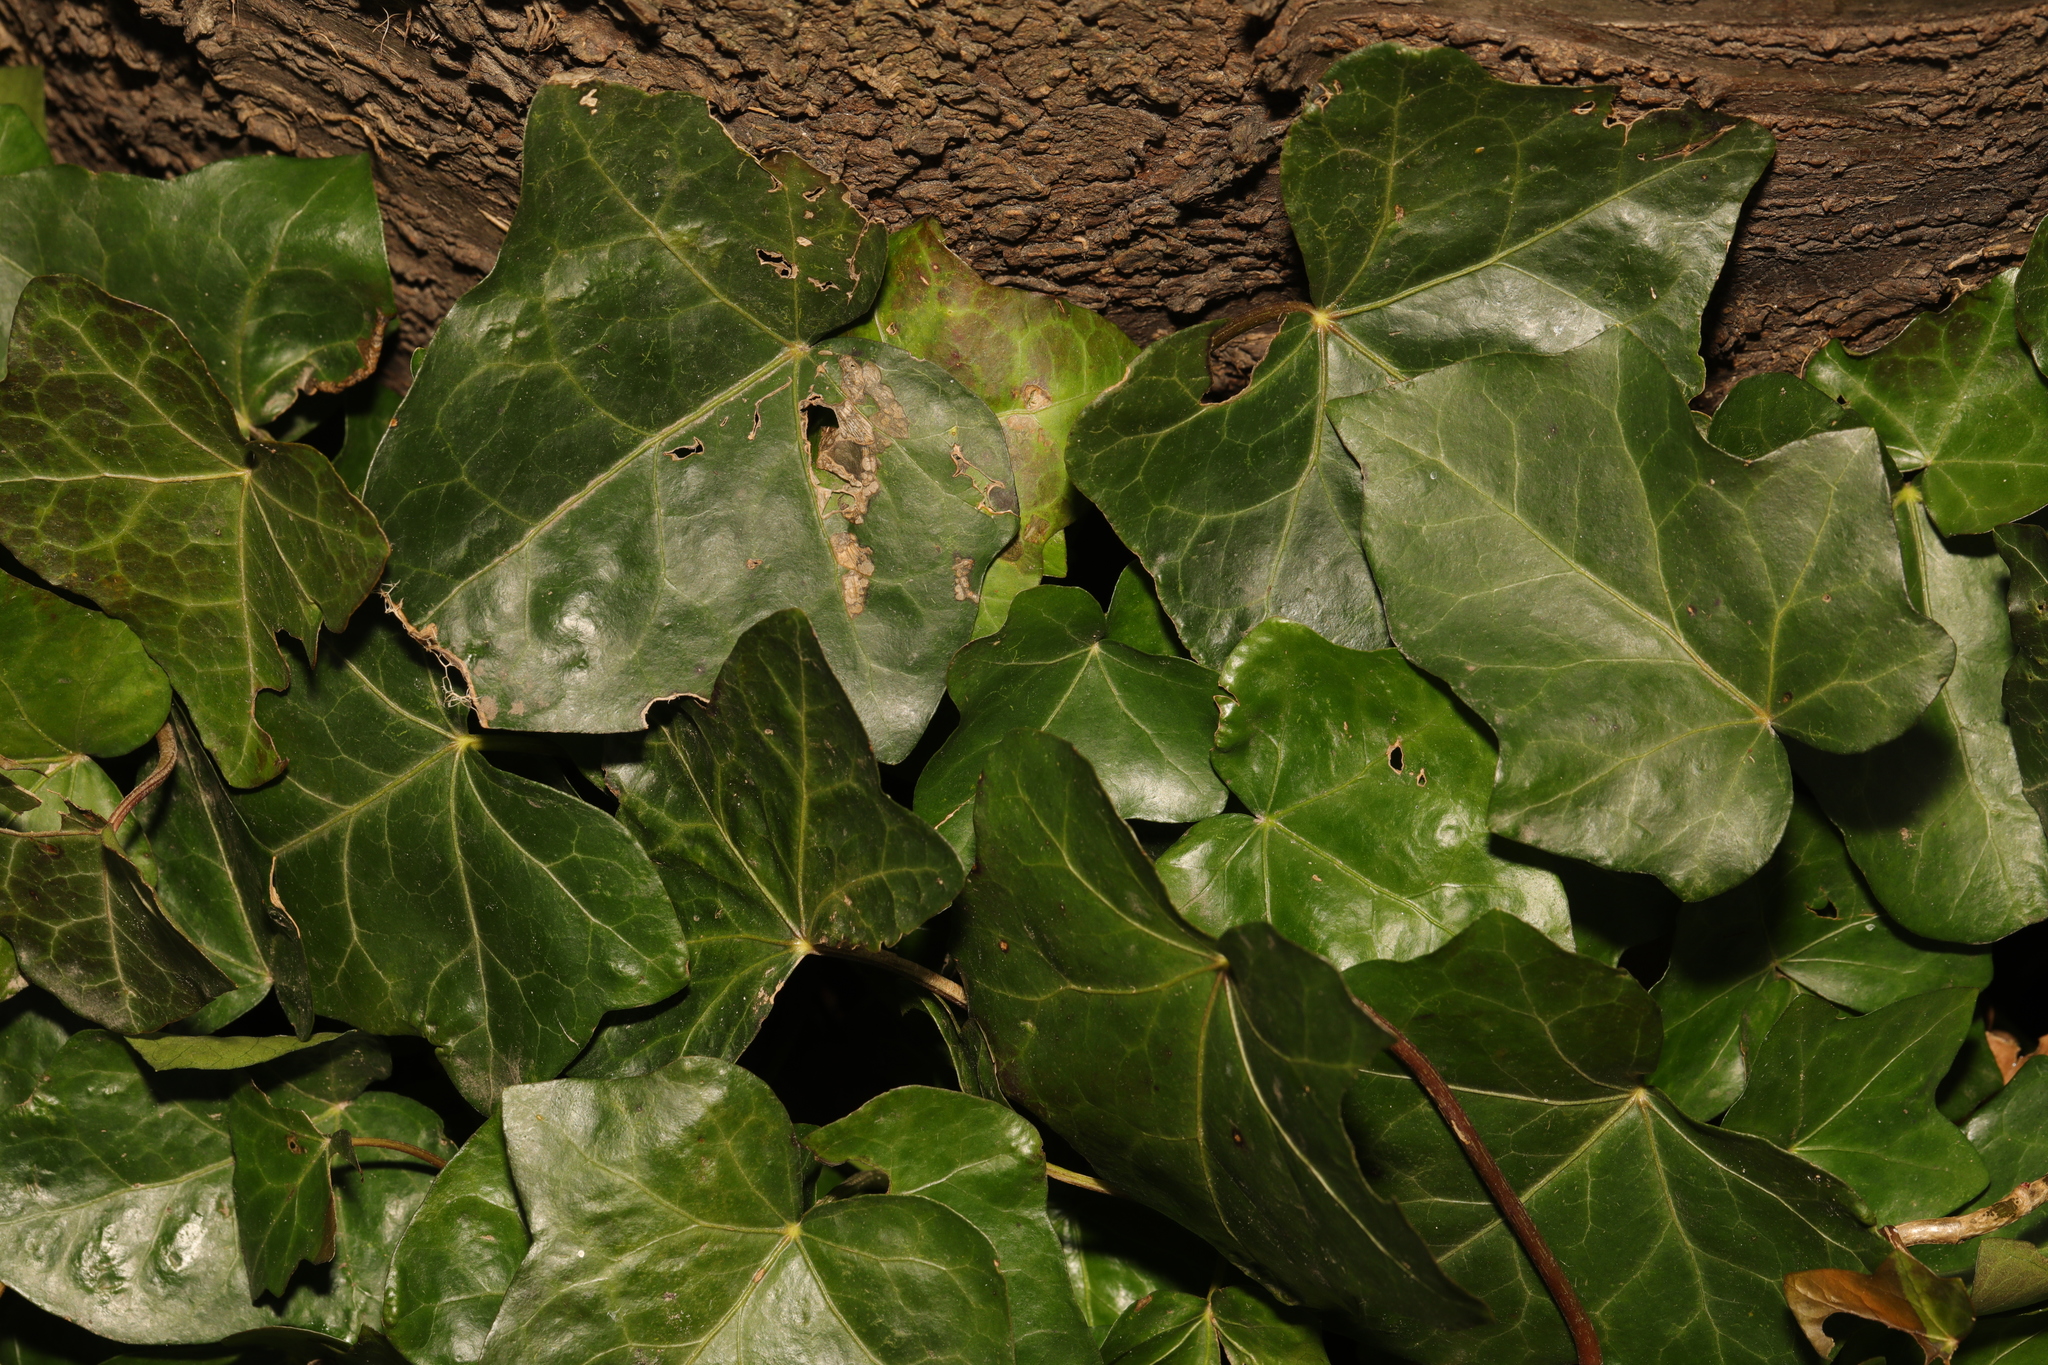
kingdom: Plantae
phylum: Tracheophyta
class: Magnoliopsida
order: Apiales
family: Araliaceae
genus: Hedera
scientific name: Hedera helix
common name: Ivy
